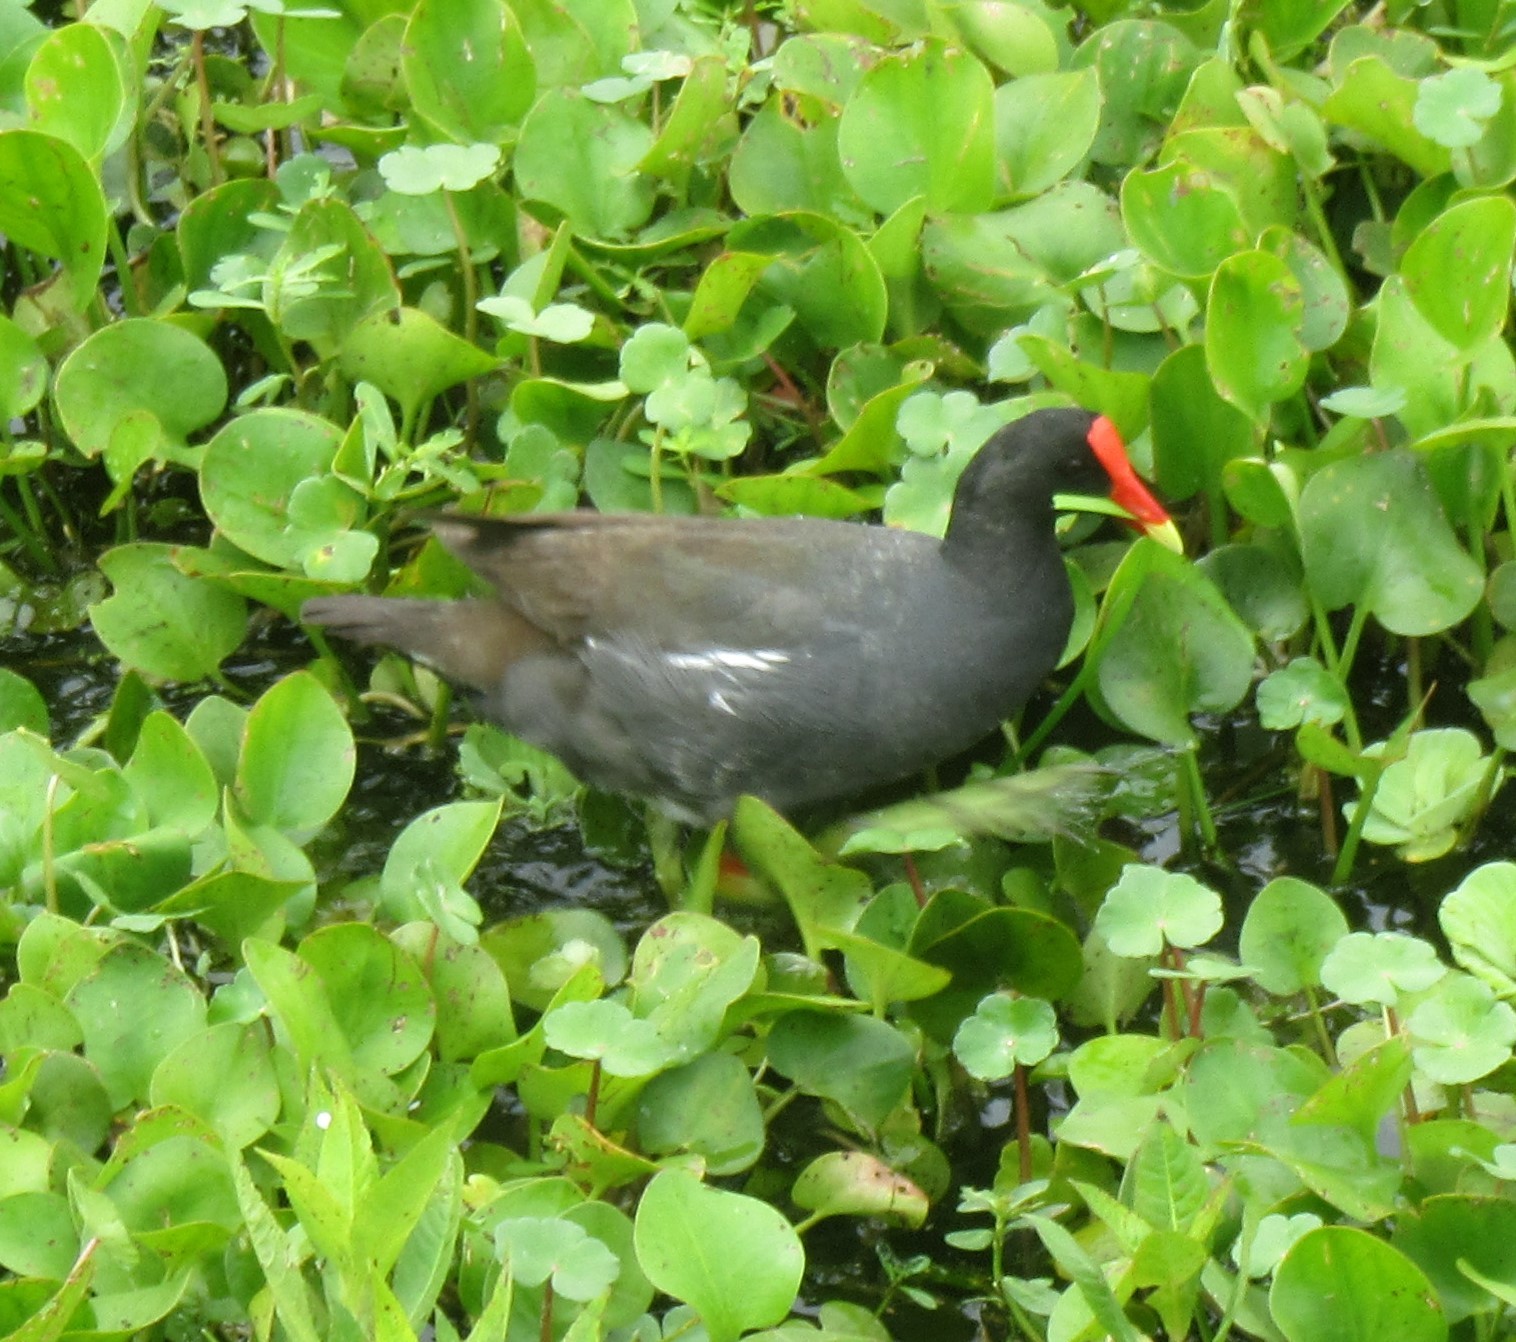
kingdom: Animalia
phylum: Chordata
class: Aves
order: Gruiformes
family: Rallidae
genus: Gallinula
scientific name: Gallinula chloropus
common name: Common moorhen
